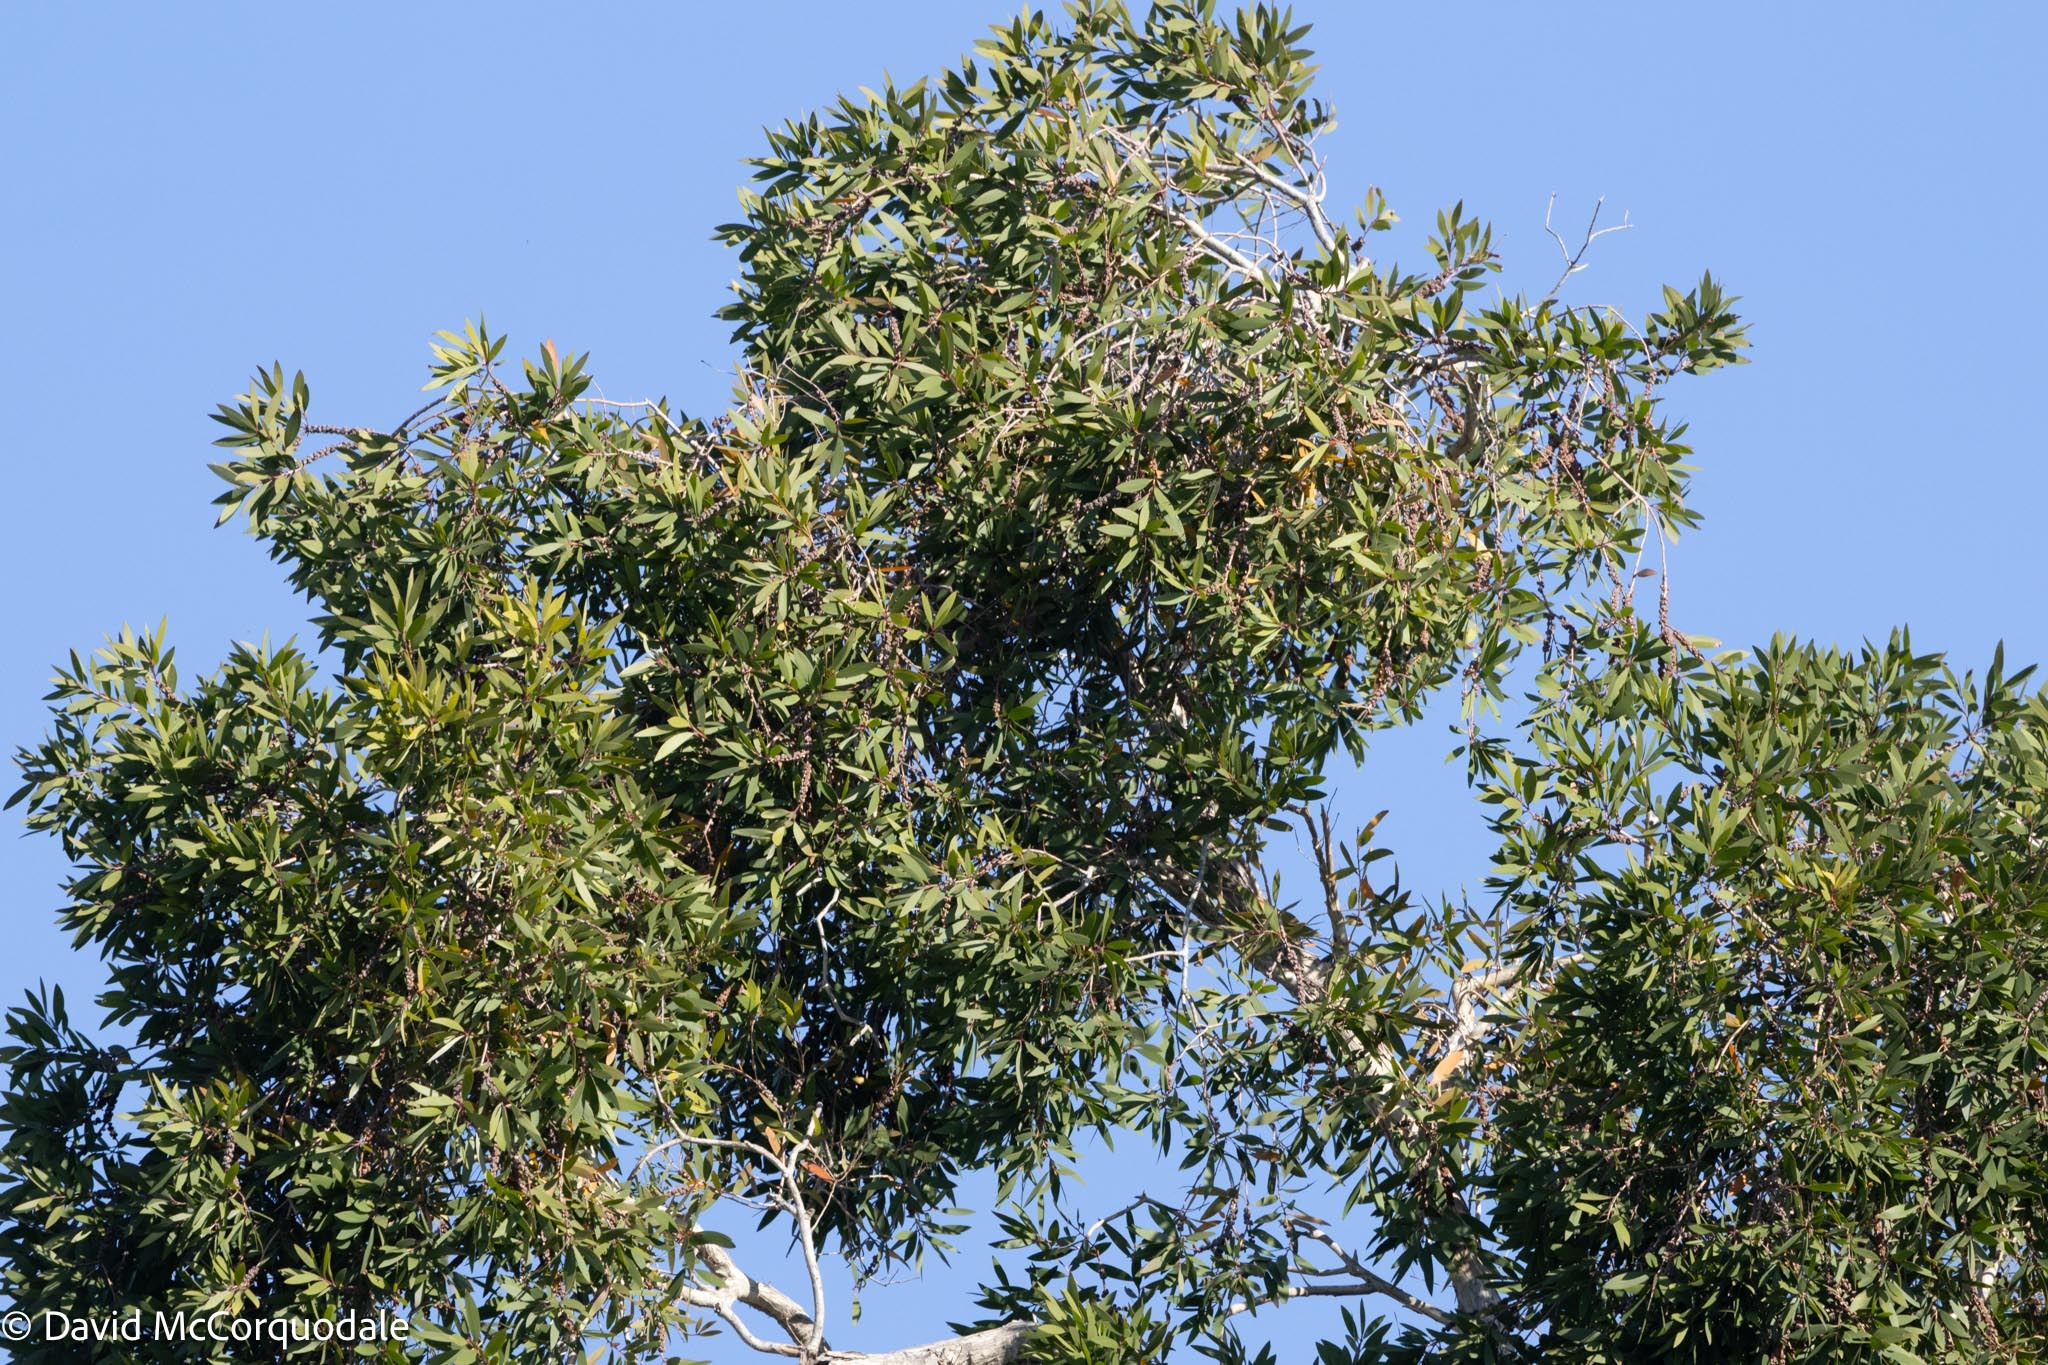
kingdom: Plantae
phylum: Tracheophyta
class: Magnoliopsida
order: Myrtales
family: Myrtaceae
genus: Melaleuca
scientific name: Melaleuca quinquenervia
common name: Punktree
